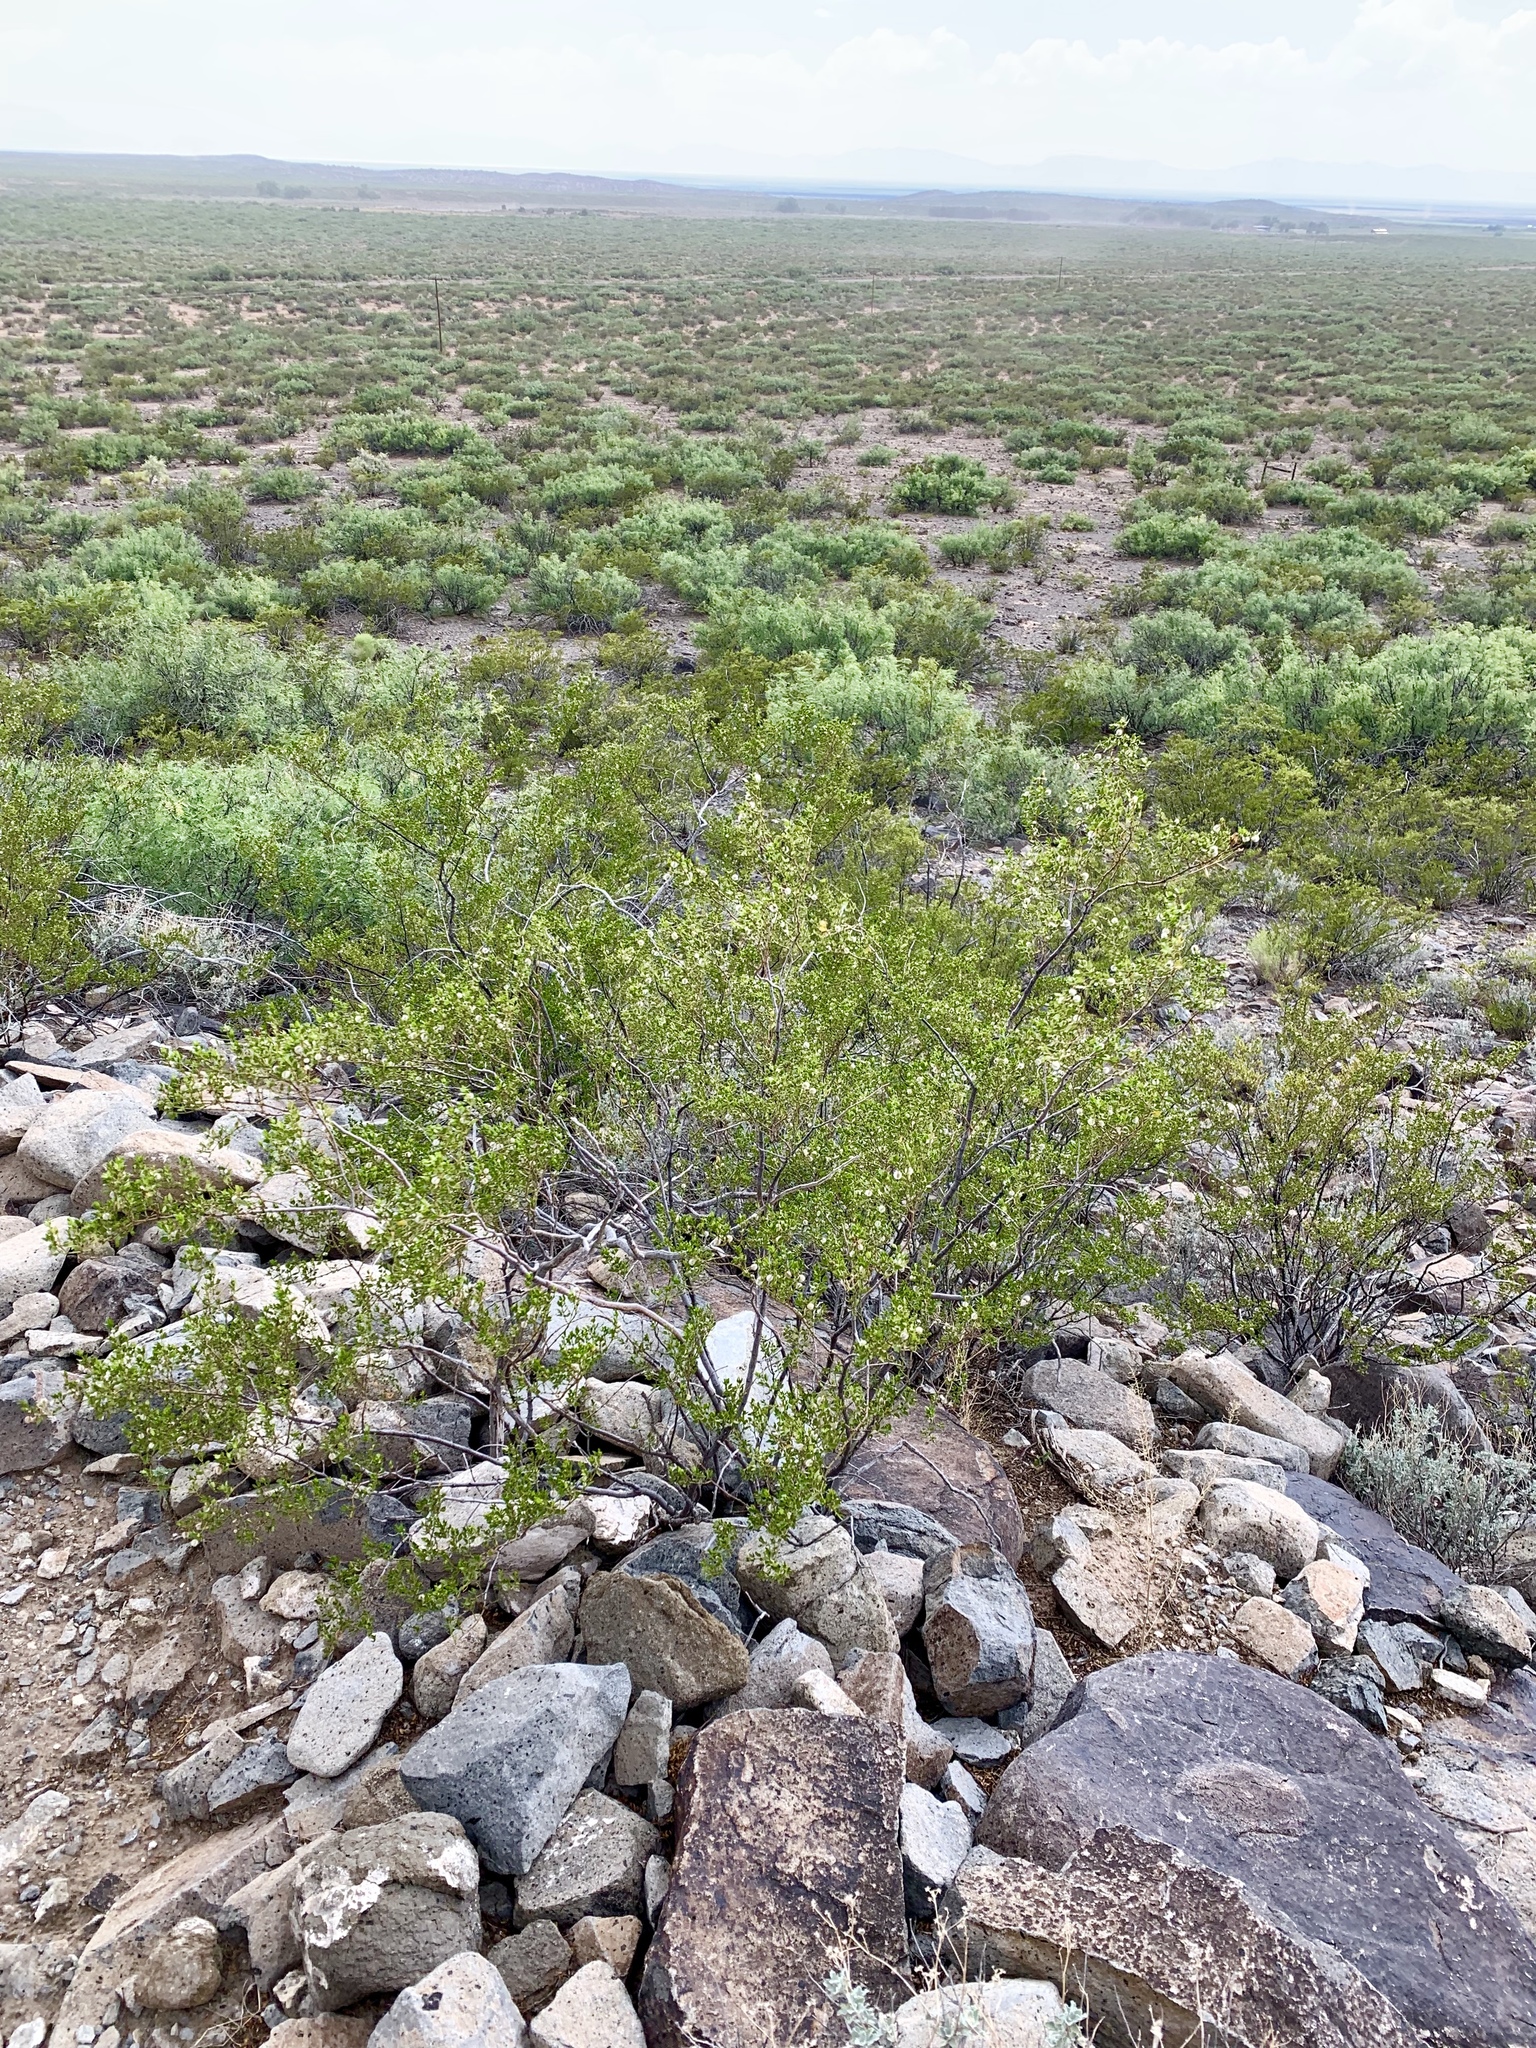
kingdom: Plantae
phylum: Tracheophyta
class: Magnoliopsida
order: Zygophyllales
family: Zygophyllaceae
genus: Larrea
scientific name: Larrea tridentata
